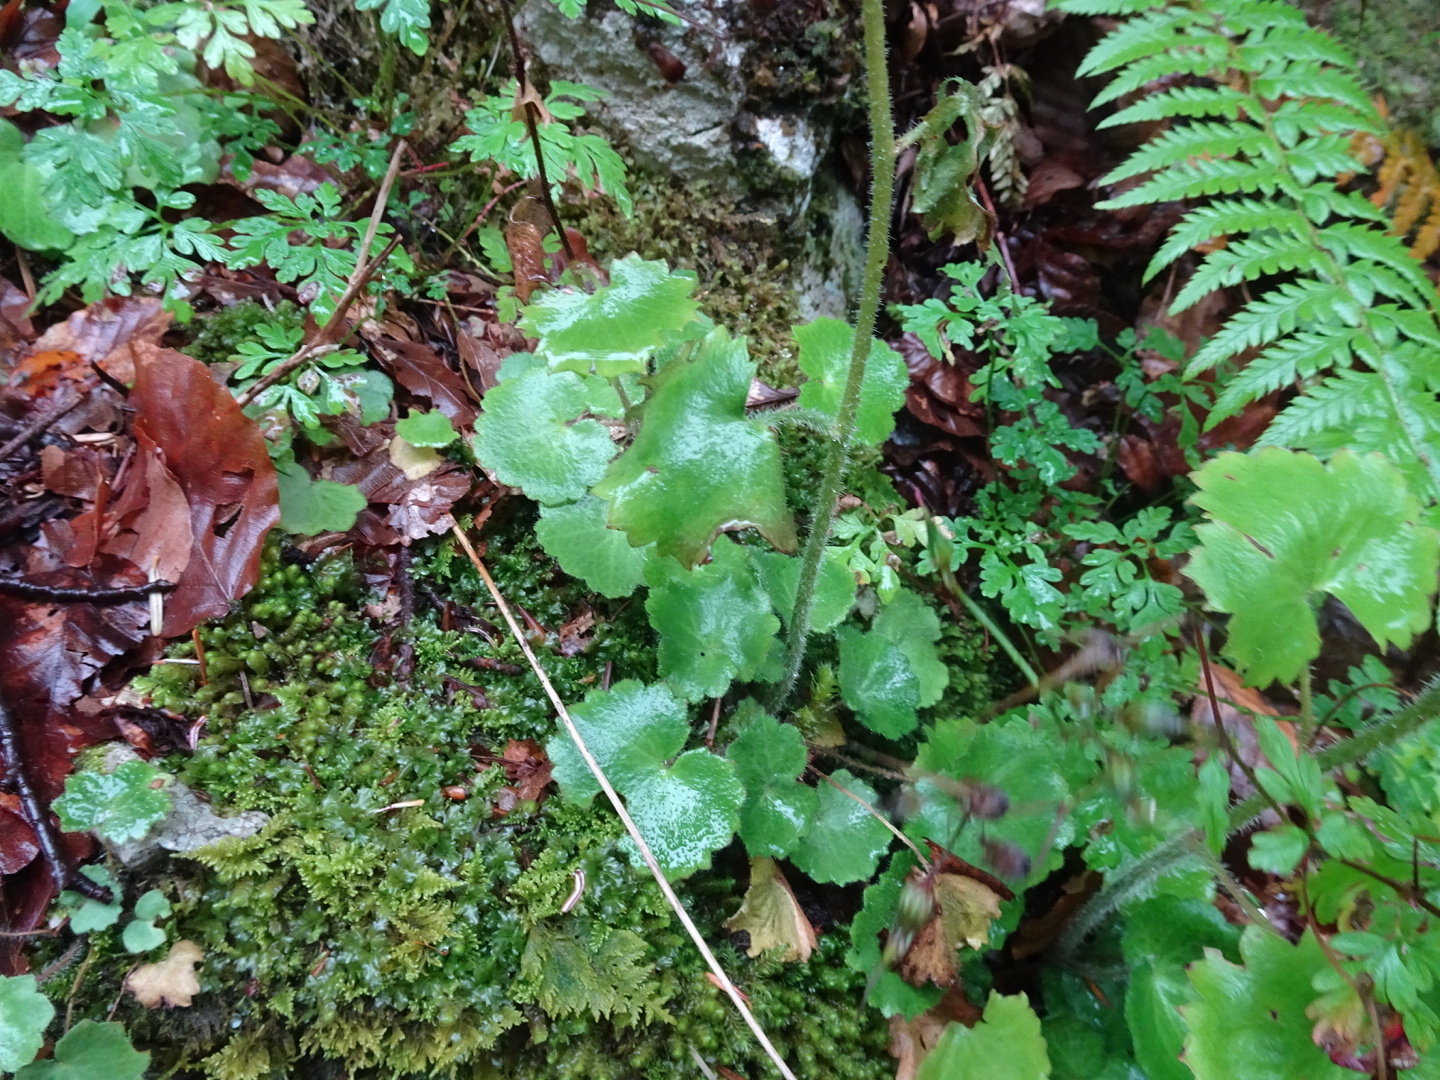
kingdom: Plantae
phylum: Tracheophyta
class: Magnoliopsida
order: Saxifragales
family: Saxifragaceae
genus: Saxifraga
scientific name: Saxifraga rotundifolia
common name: Round-leaved saxifrage
